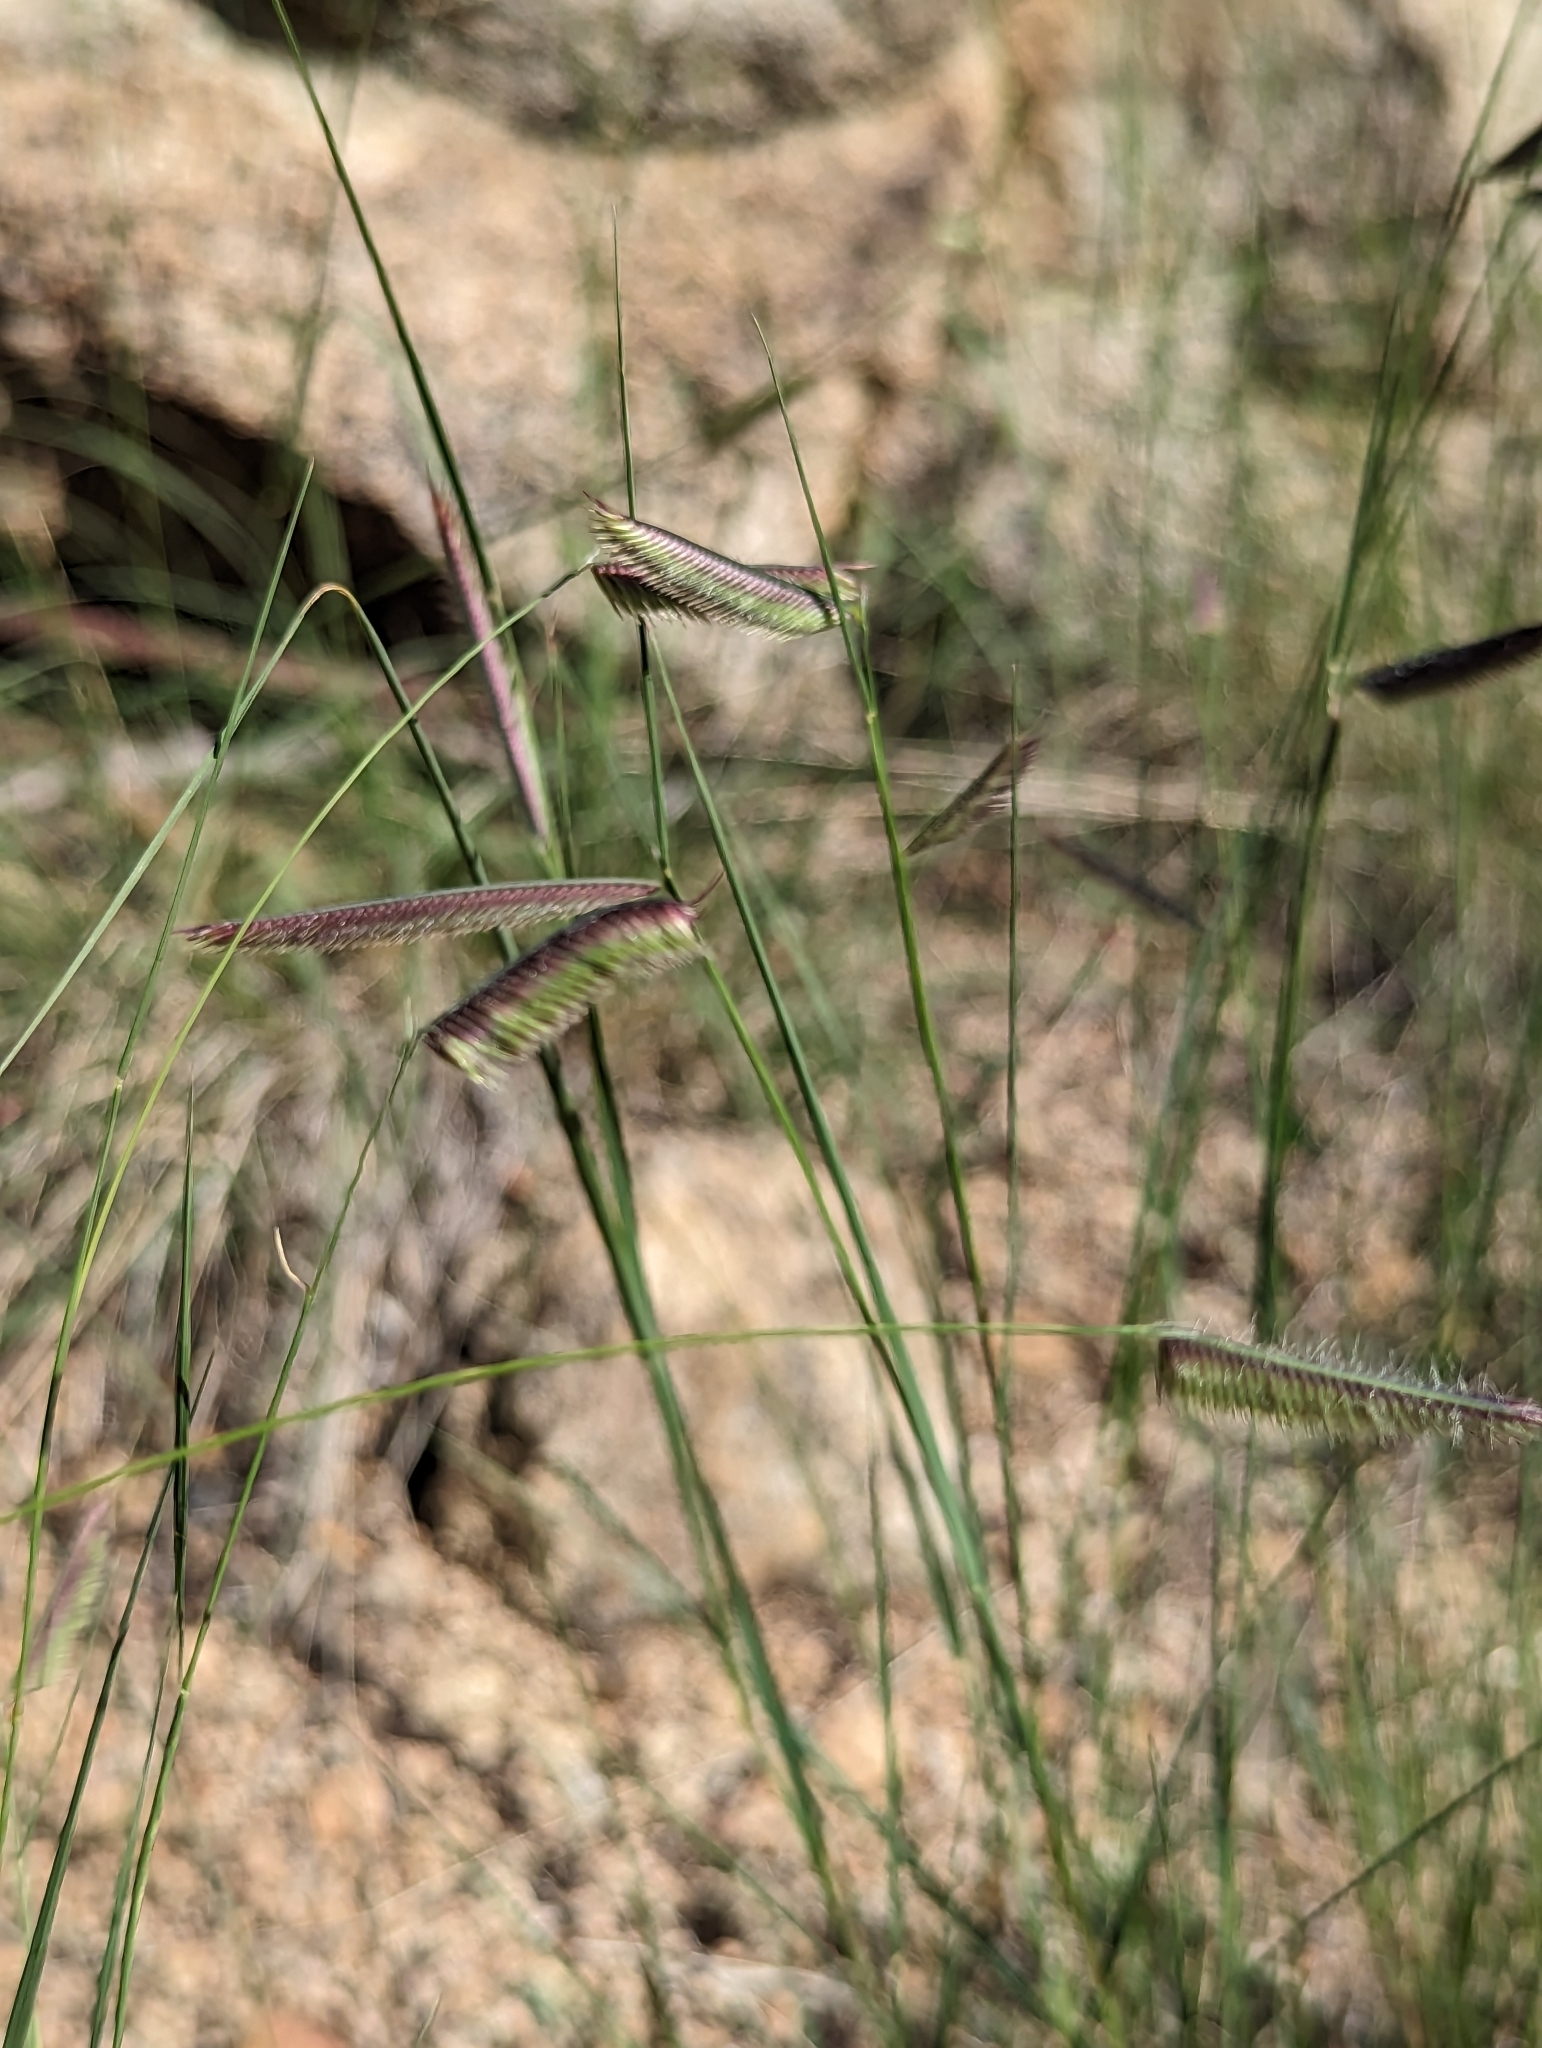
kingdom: Plantae
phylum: Tracheophyta
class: Liliopsida
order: Poales
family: Poaceae
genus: Bouteloua
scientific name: Bouteloua gracilis
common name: Blue grama
